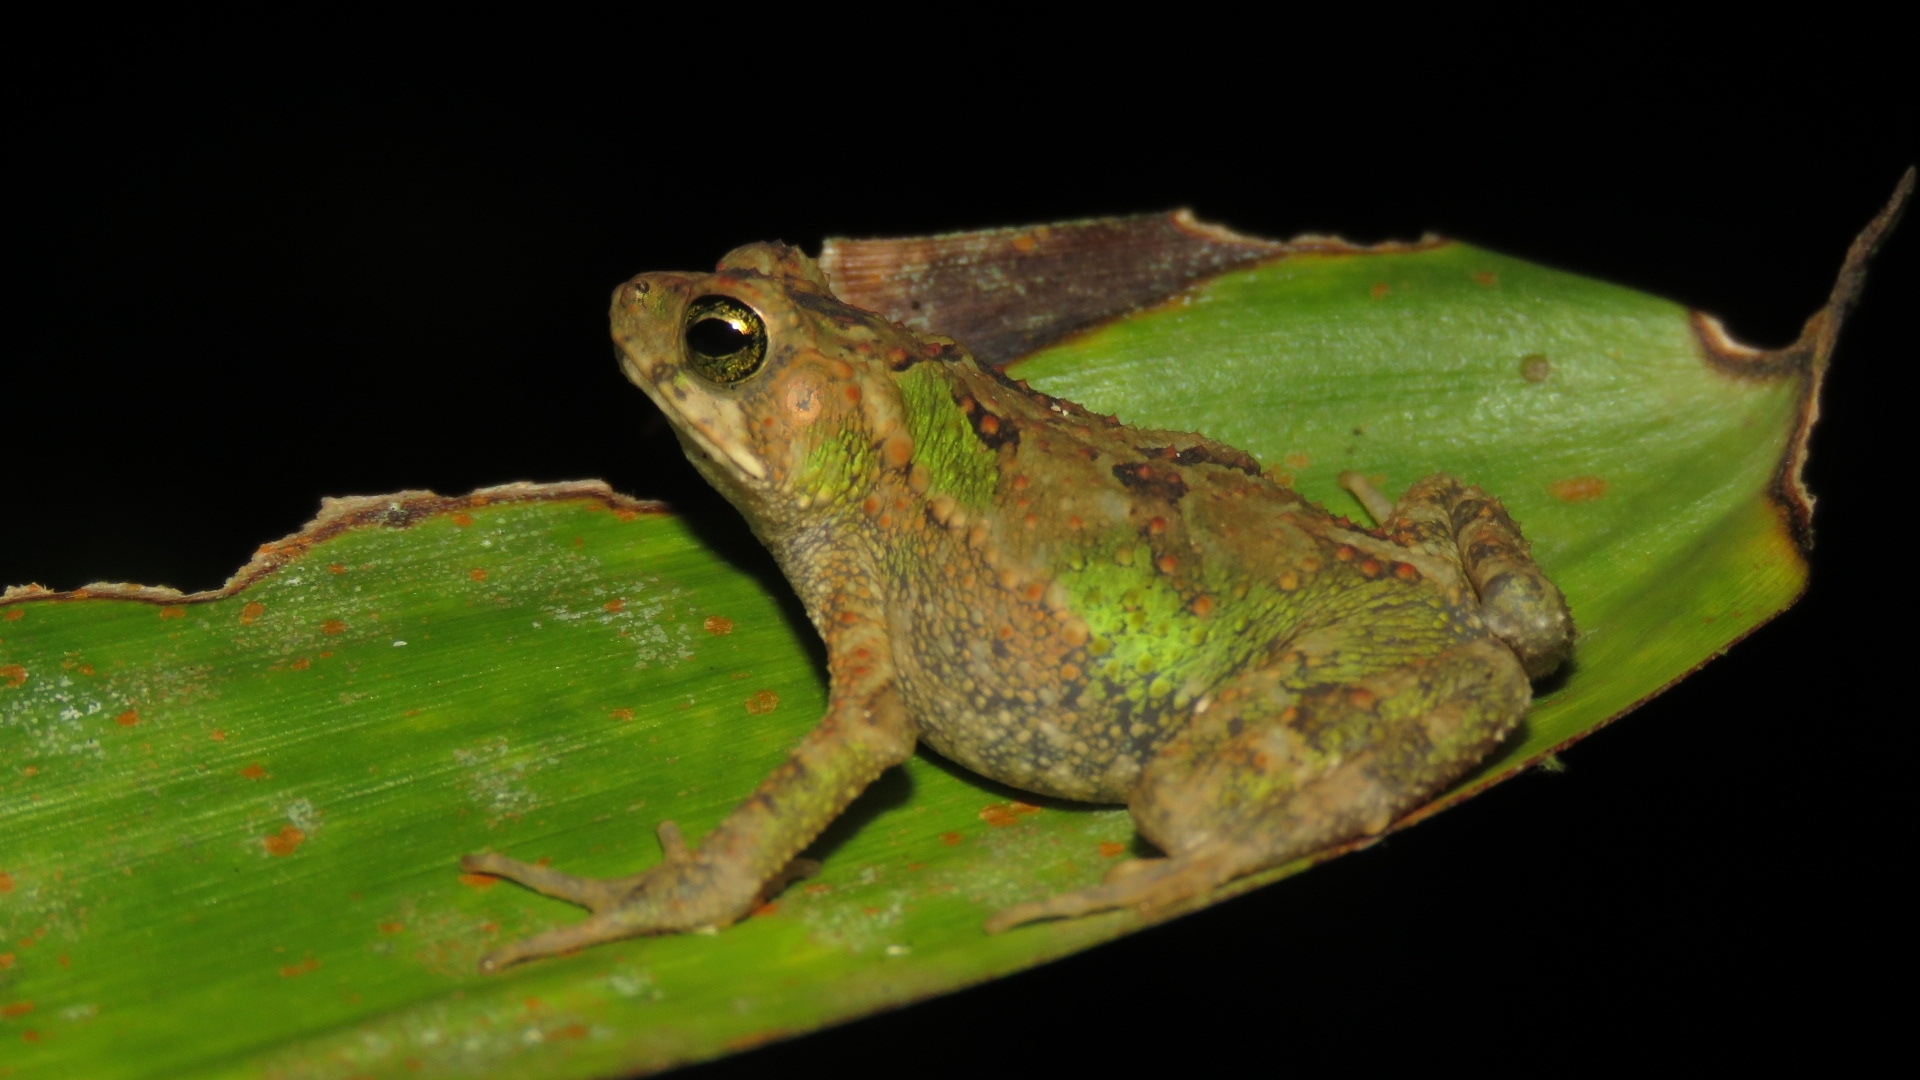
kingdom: Animalia
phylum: Chordata
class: Amphibia
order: Anura
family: Bufonidae
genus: Incilius
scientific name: Incilius coniferus
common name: Evergreen toad
